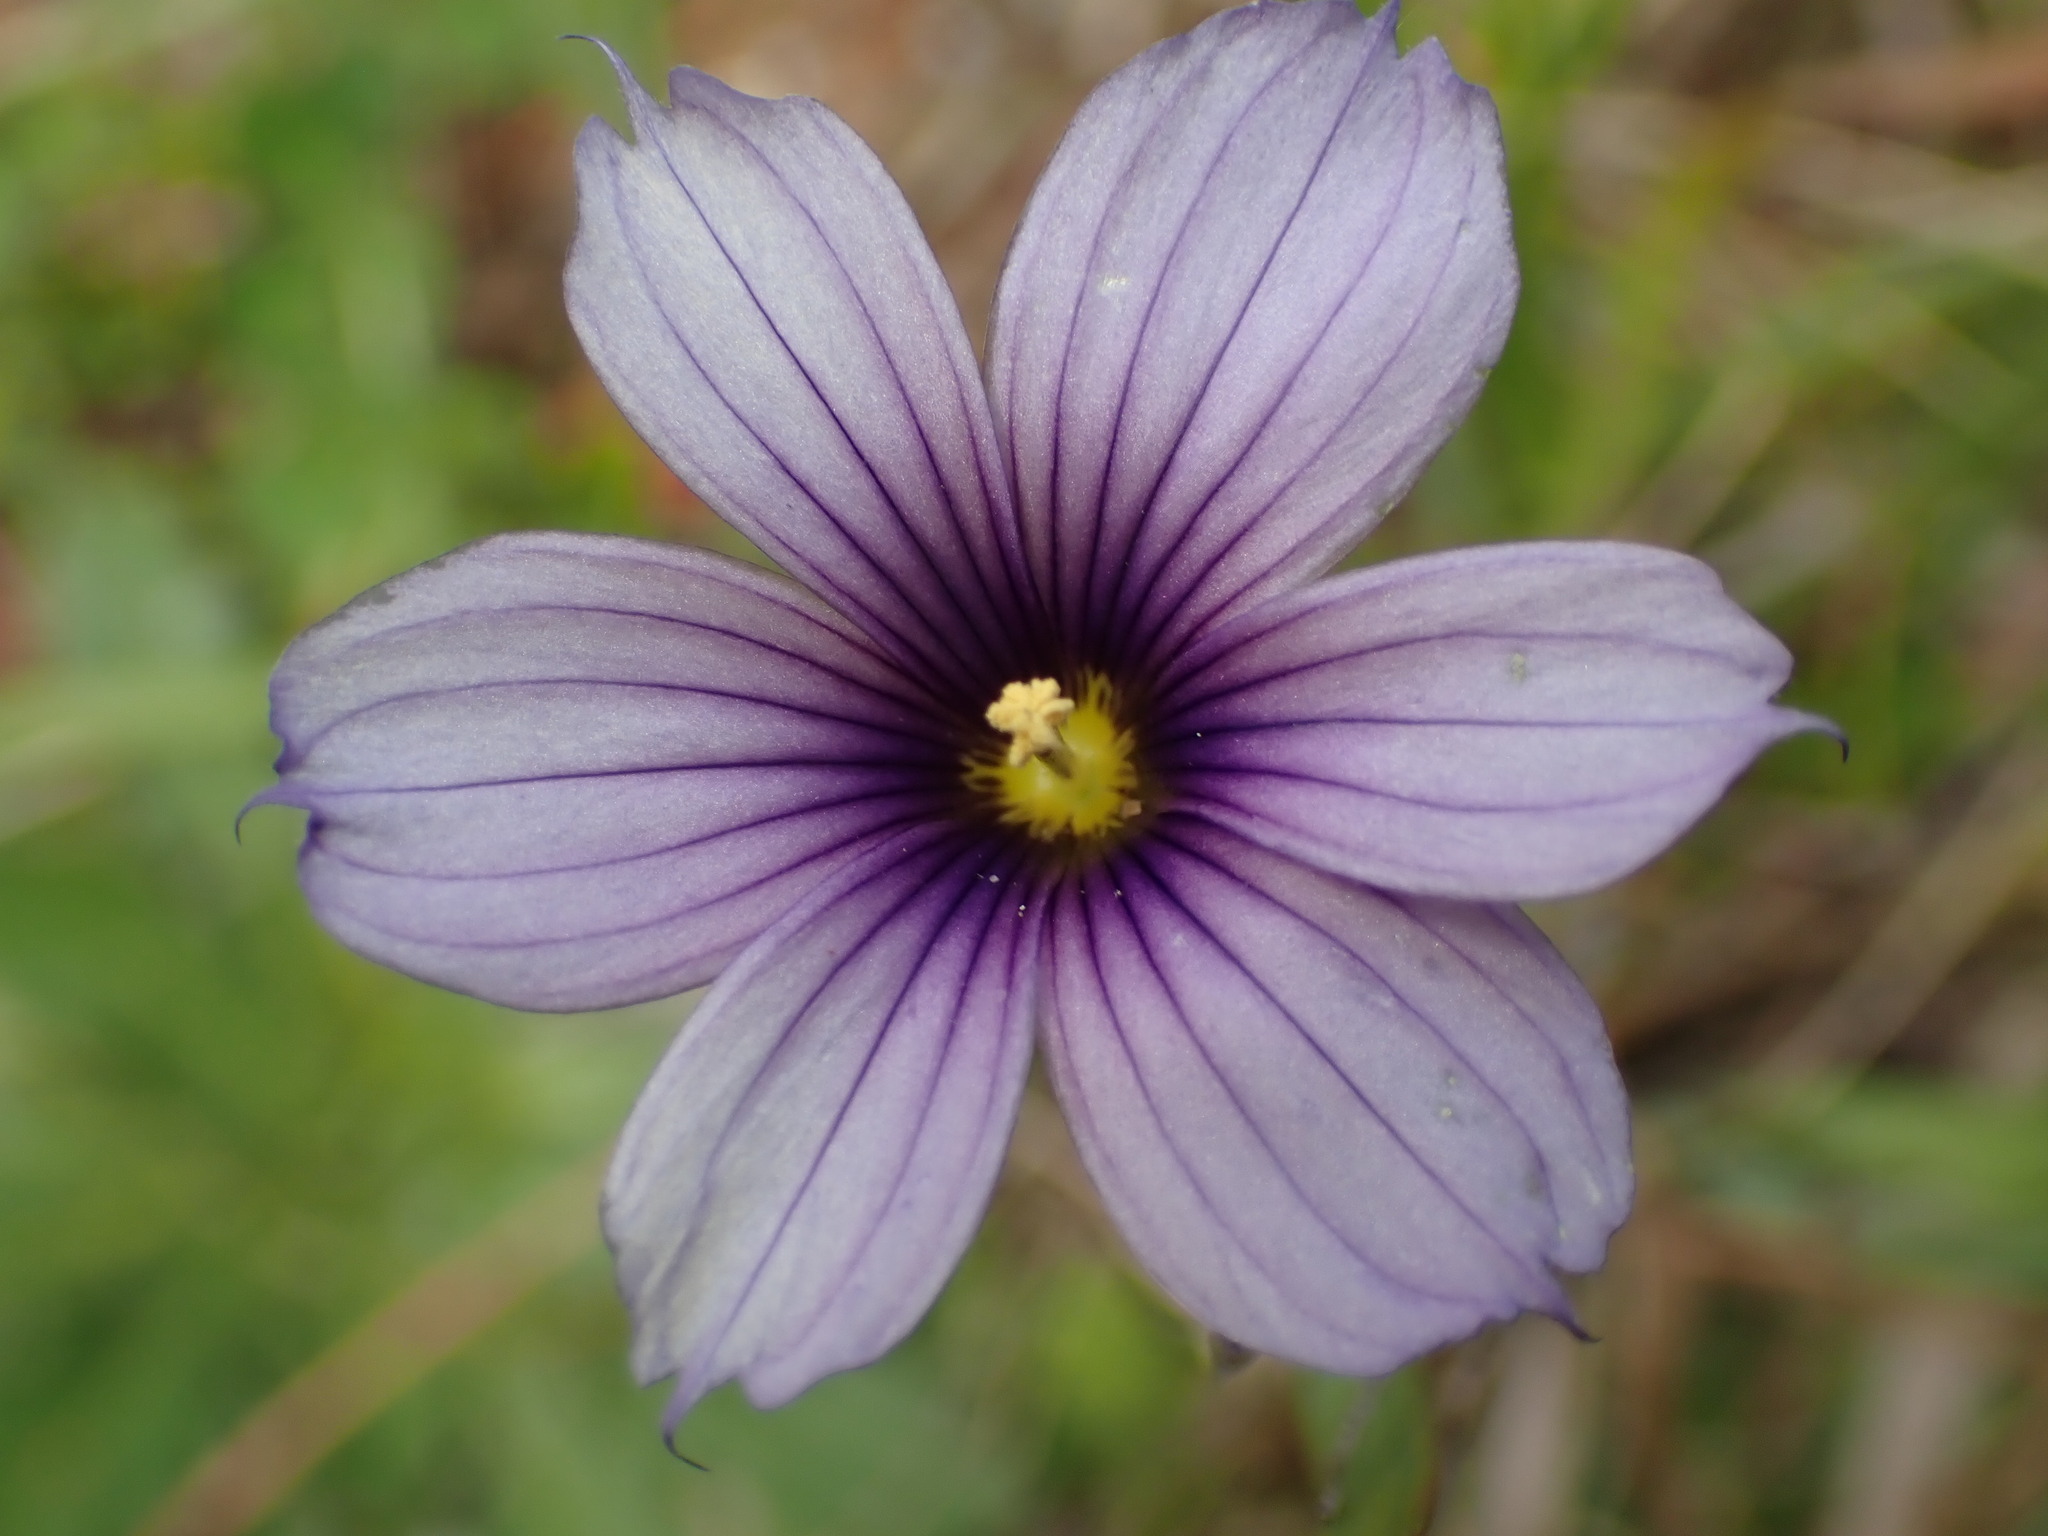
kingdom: Plantae
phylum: Tracheophyta
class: Liliopsida
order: Asparagales
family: Iridaceae
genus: Sisyrinchium
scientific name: Sisyrinchium bellum
